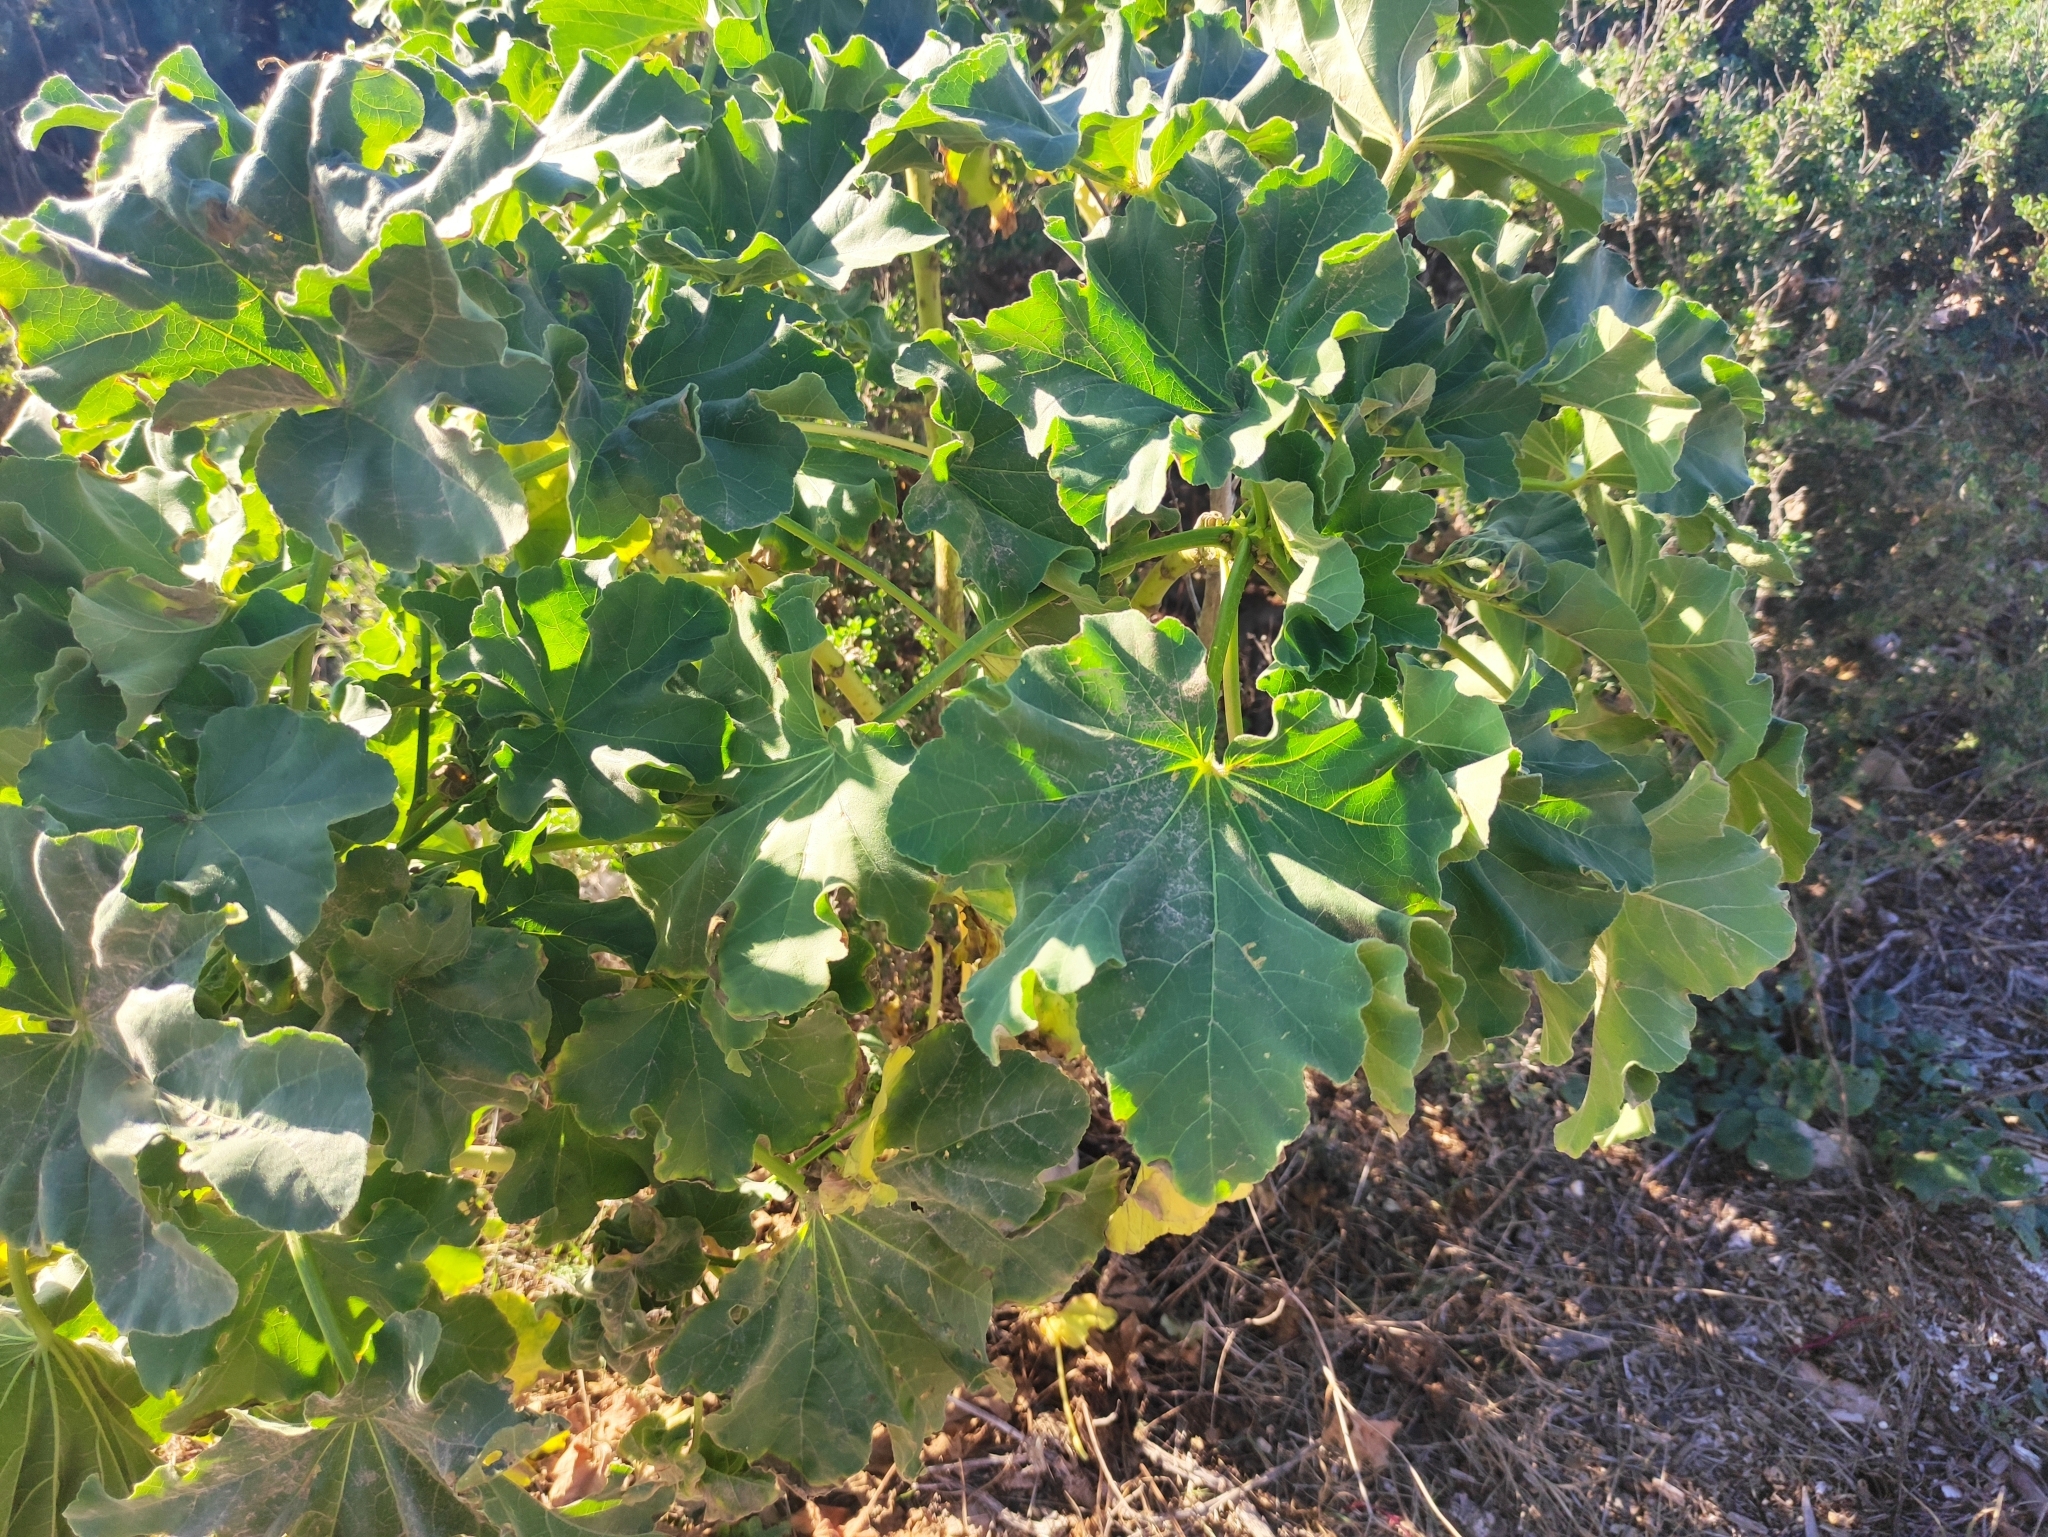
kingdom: Plantae
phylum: Tracheophyta
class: Magnoliopsida
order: Malvales
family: Malvaceae
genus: Malva
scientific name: Malva arborea
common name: Tree mallow
